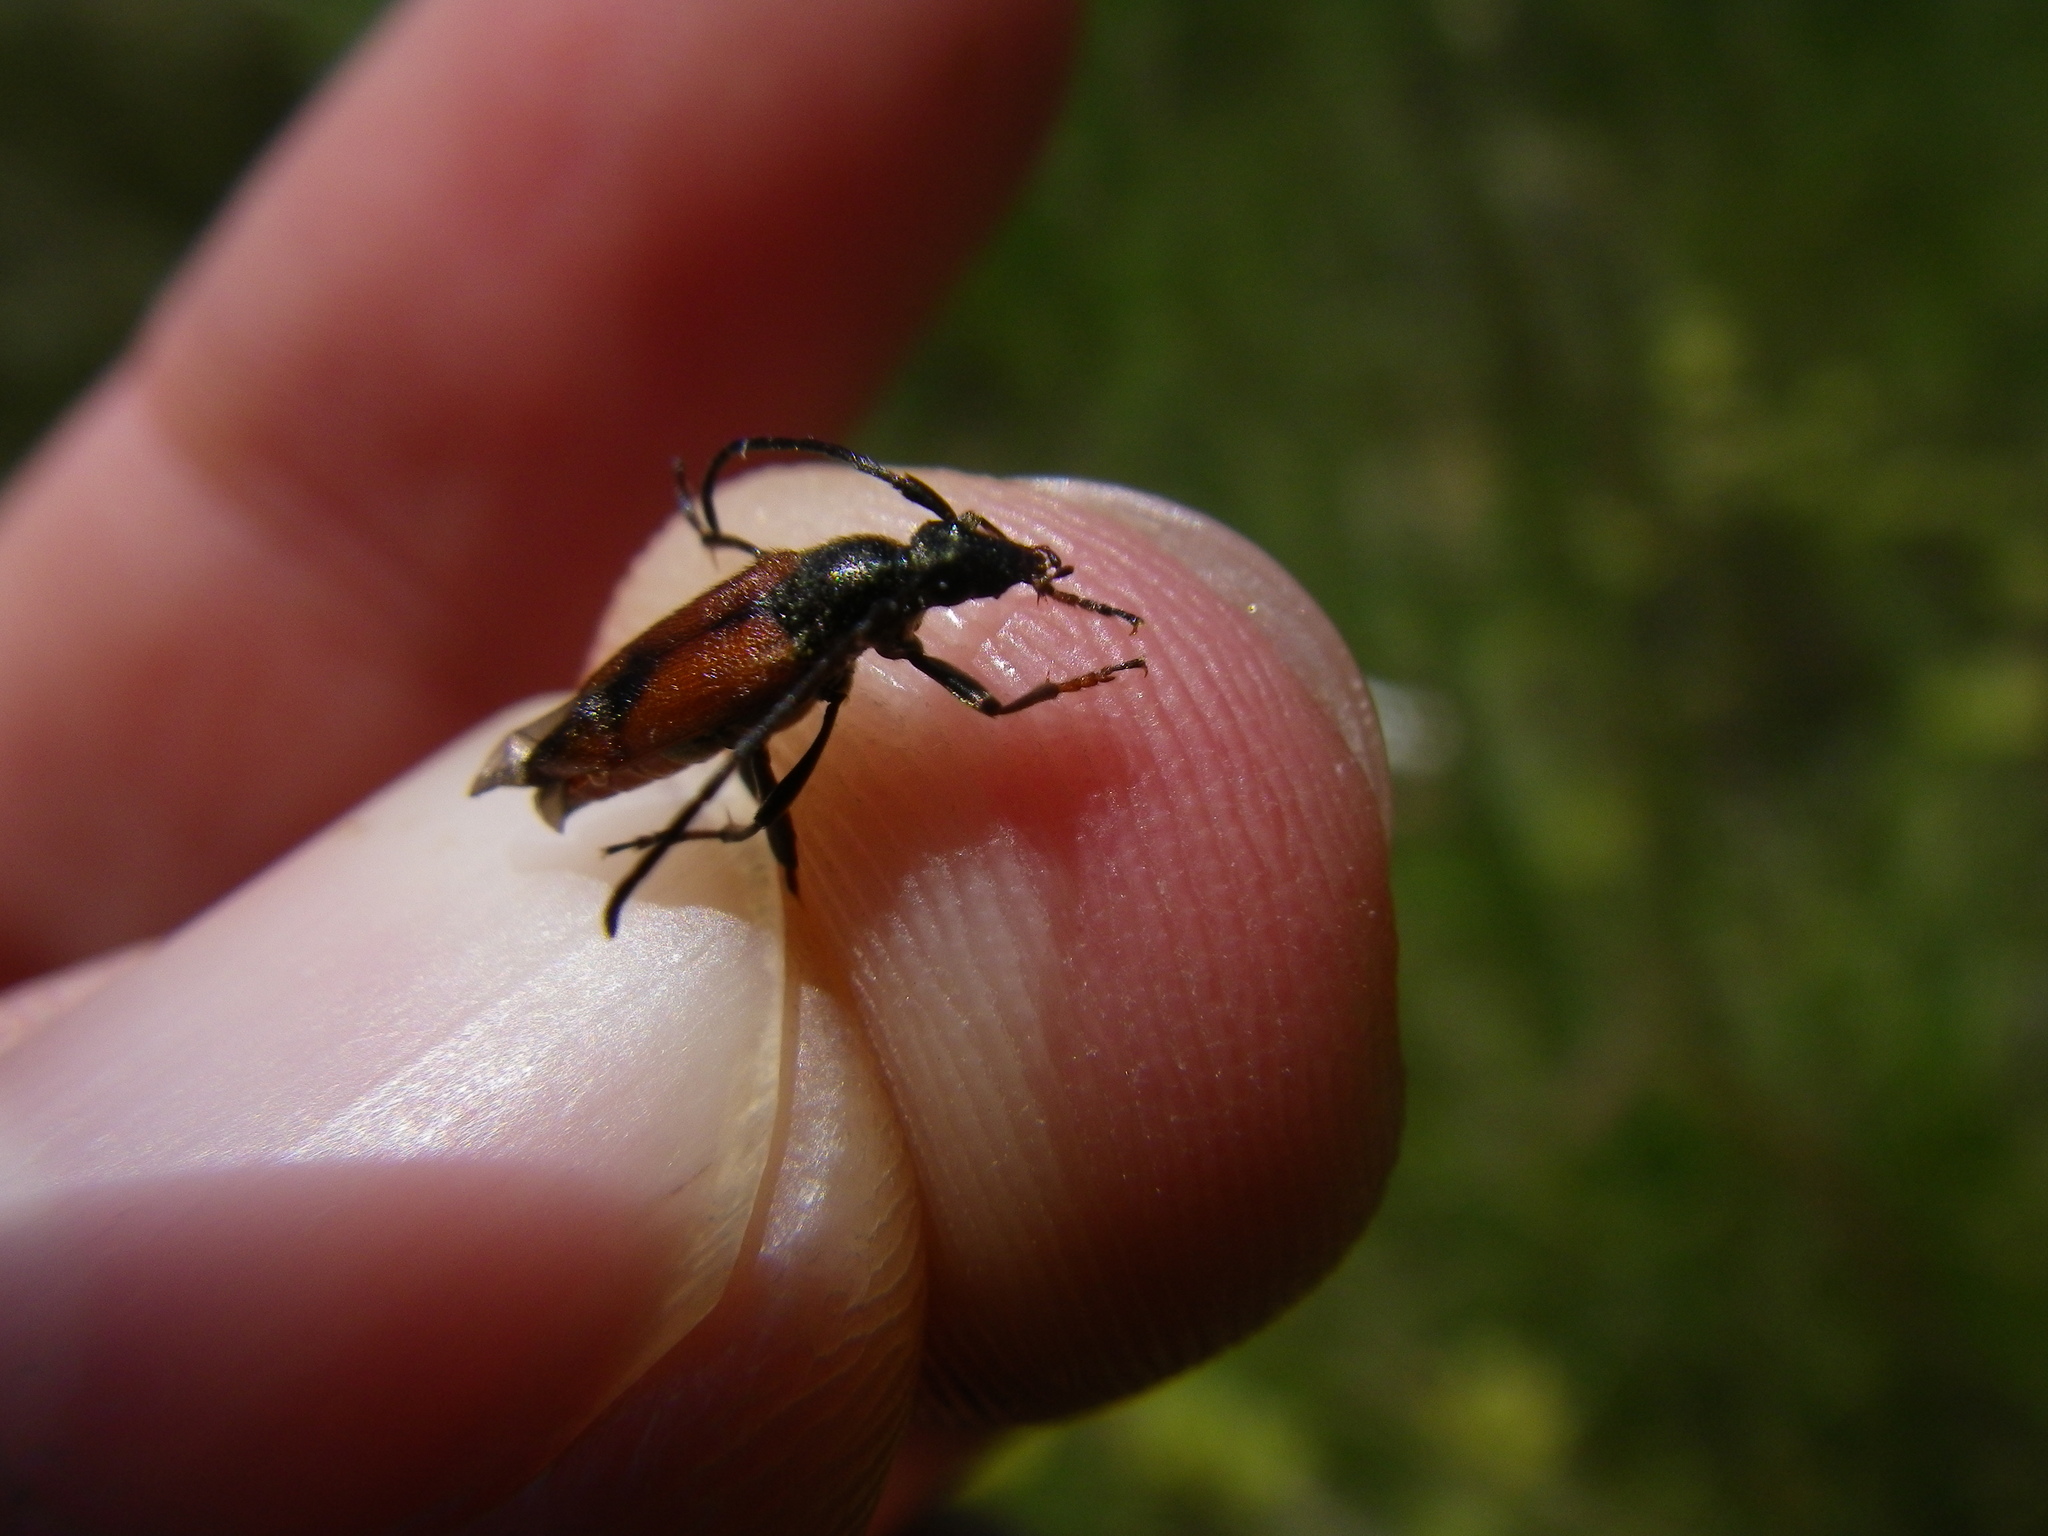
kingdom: Animalia
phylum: Arthropoda
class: Insecta
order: Coleoptera
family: Cerambycidae
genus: Stenurella
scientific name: Stenurella bifasciata
